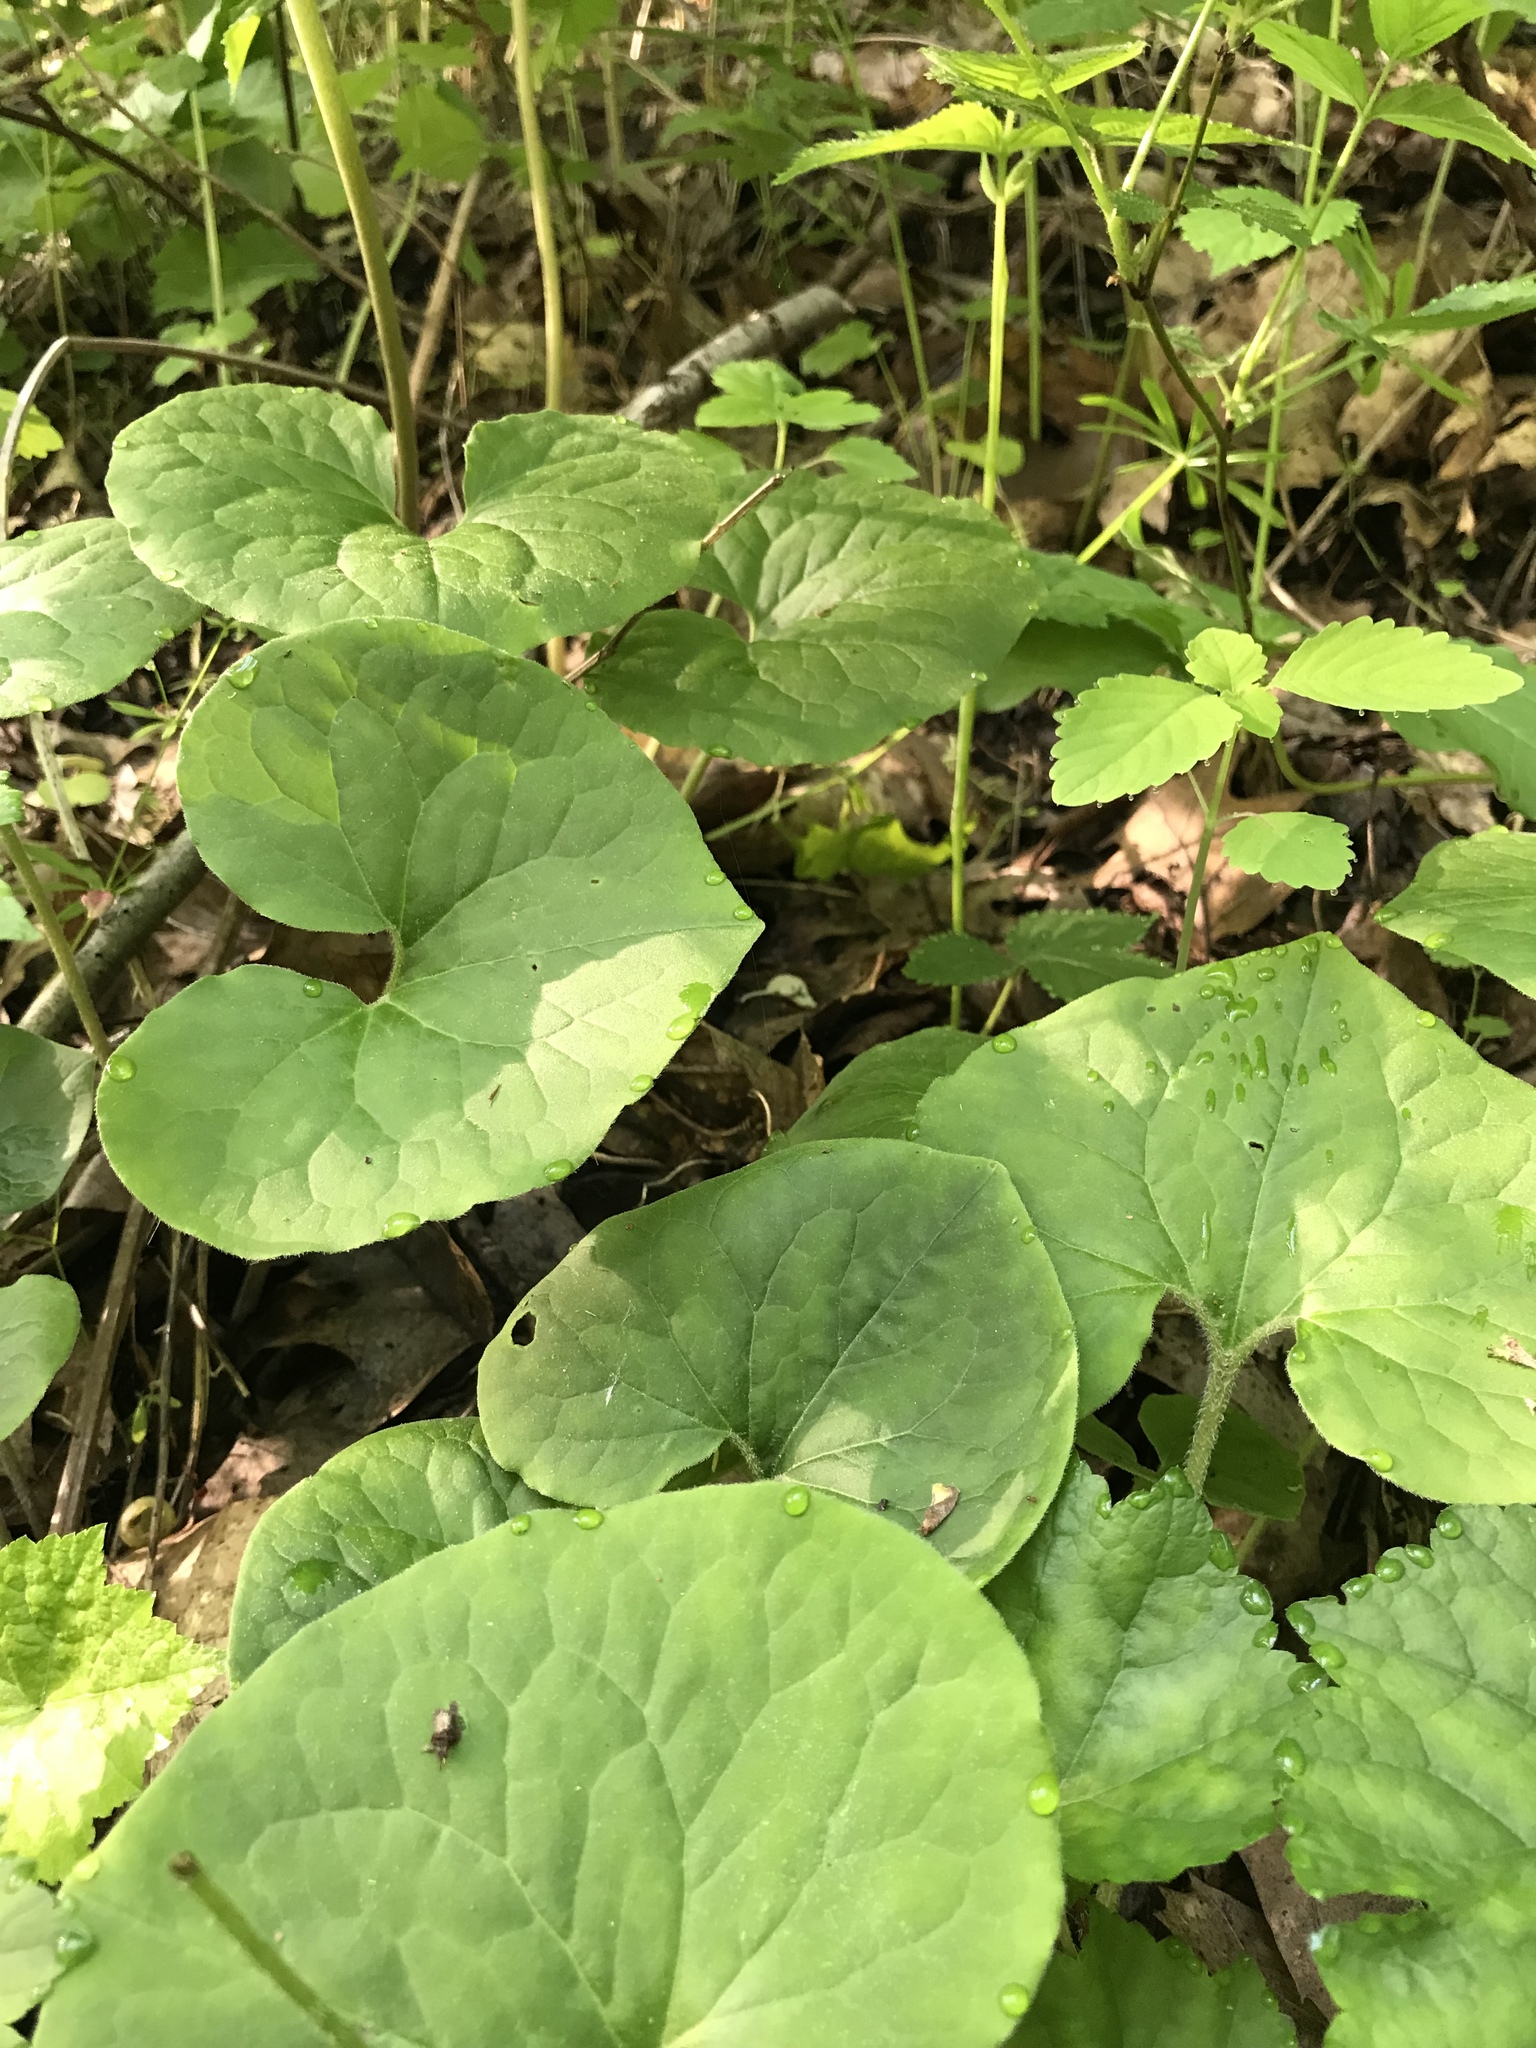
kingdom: Plantae
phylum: Tracheophyta
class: Magnoliopsida
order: Piperales
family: Aristolochiaceae
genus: Asarum
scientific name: Asarum canadense
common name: Wild ginger
